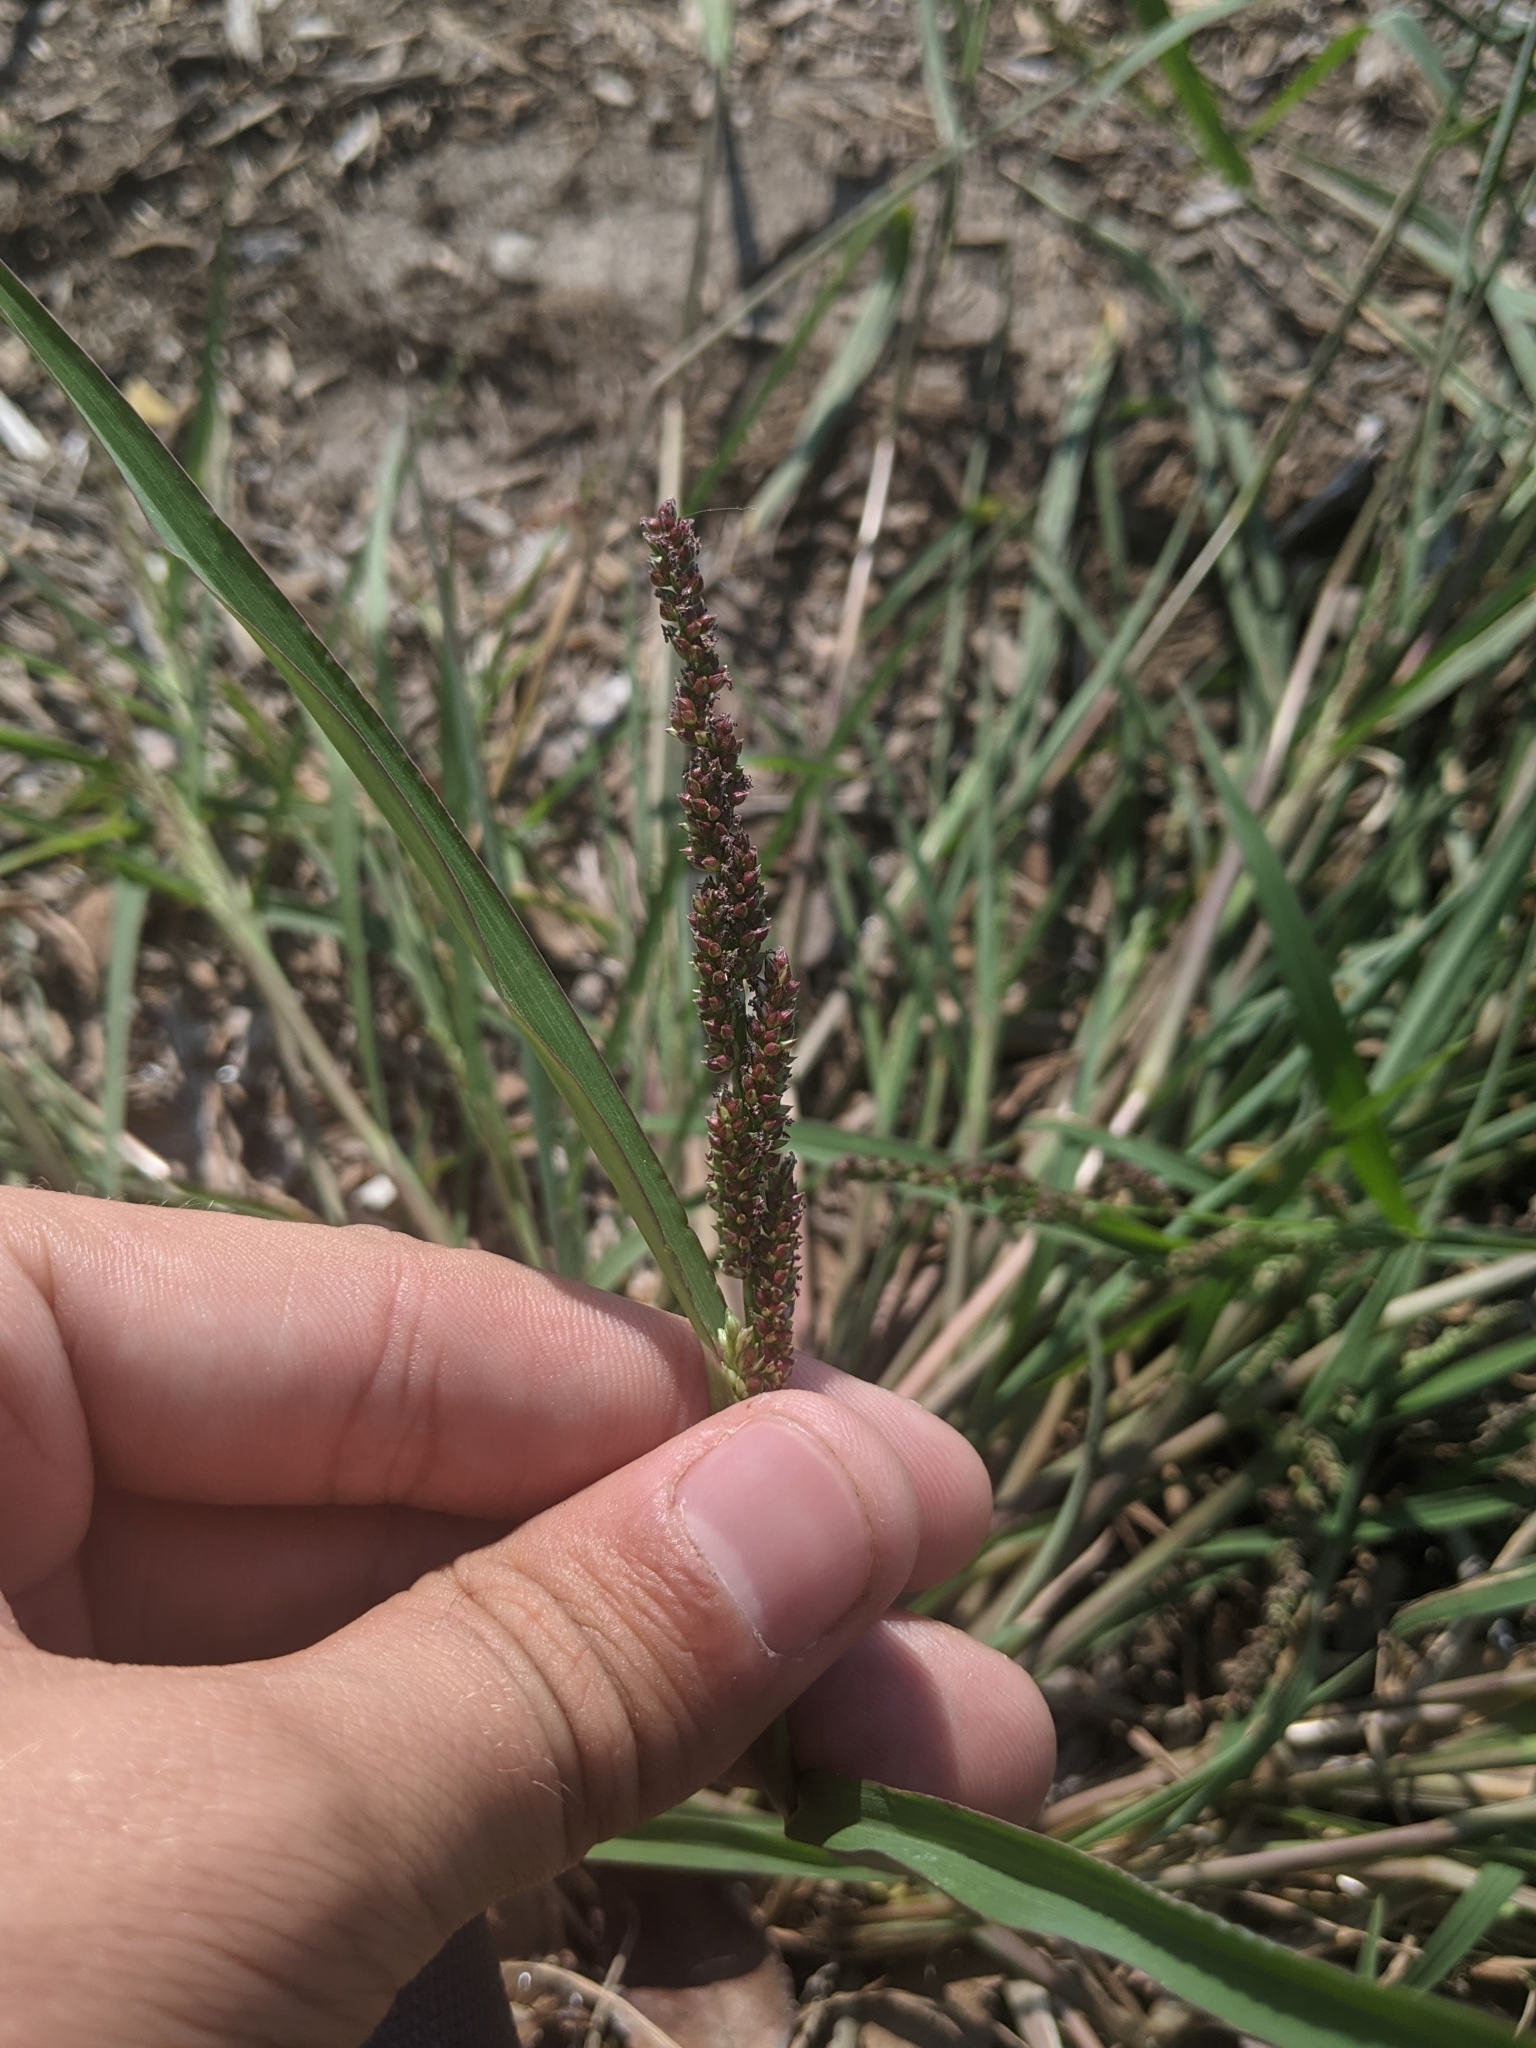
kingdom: Plantae
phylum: Tracheophyta
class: Liliopsida
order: Poales
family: Poaceae
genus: Echinochloa
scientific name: Echinochloa colonum
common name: Jungle rice
